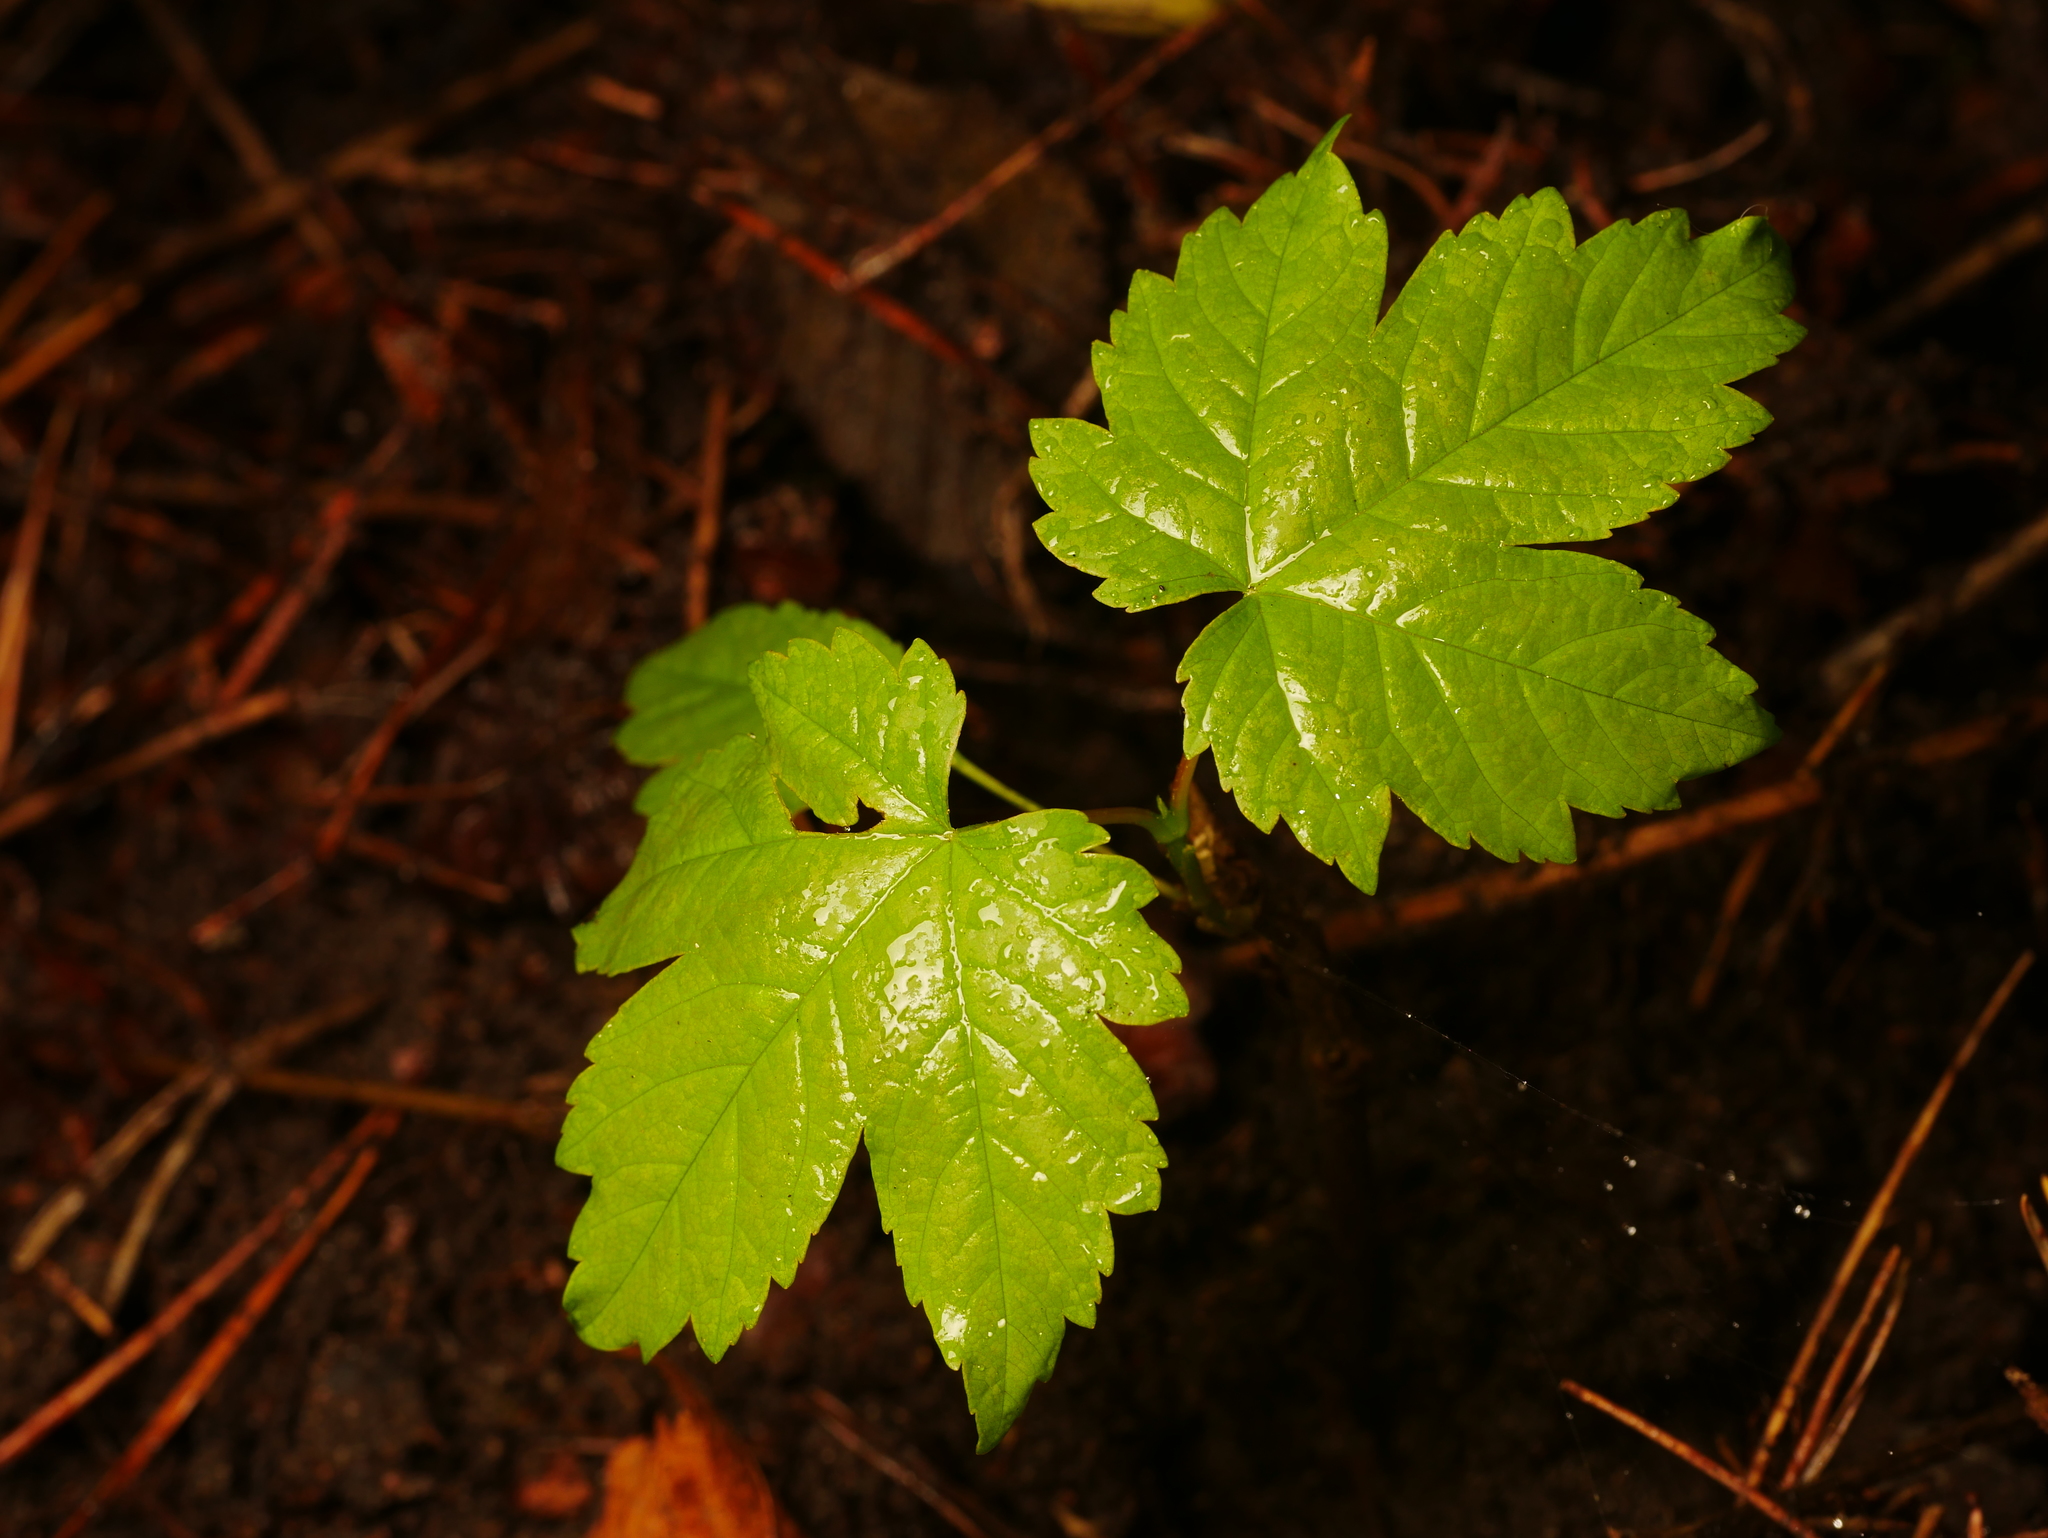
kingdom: Plantae
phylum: Tracheophyta
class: Magnoliopsida
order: Sapindales
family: Sapindaceae
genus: Acer
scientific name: Acer pseudoplatanus
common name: Sycamore
